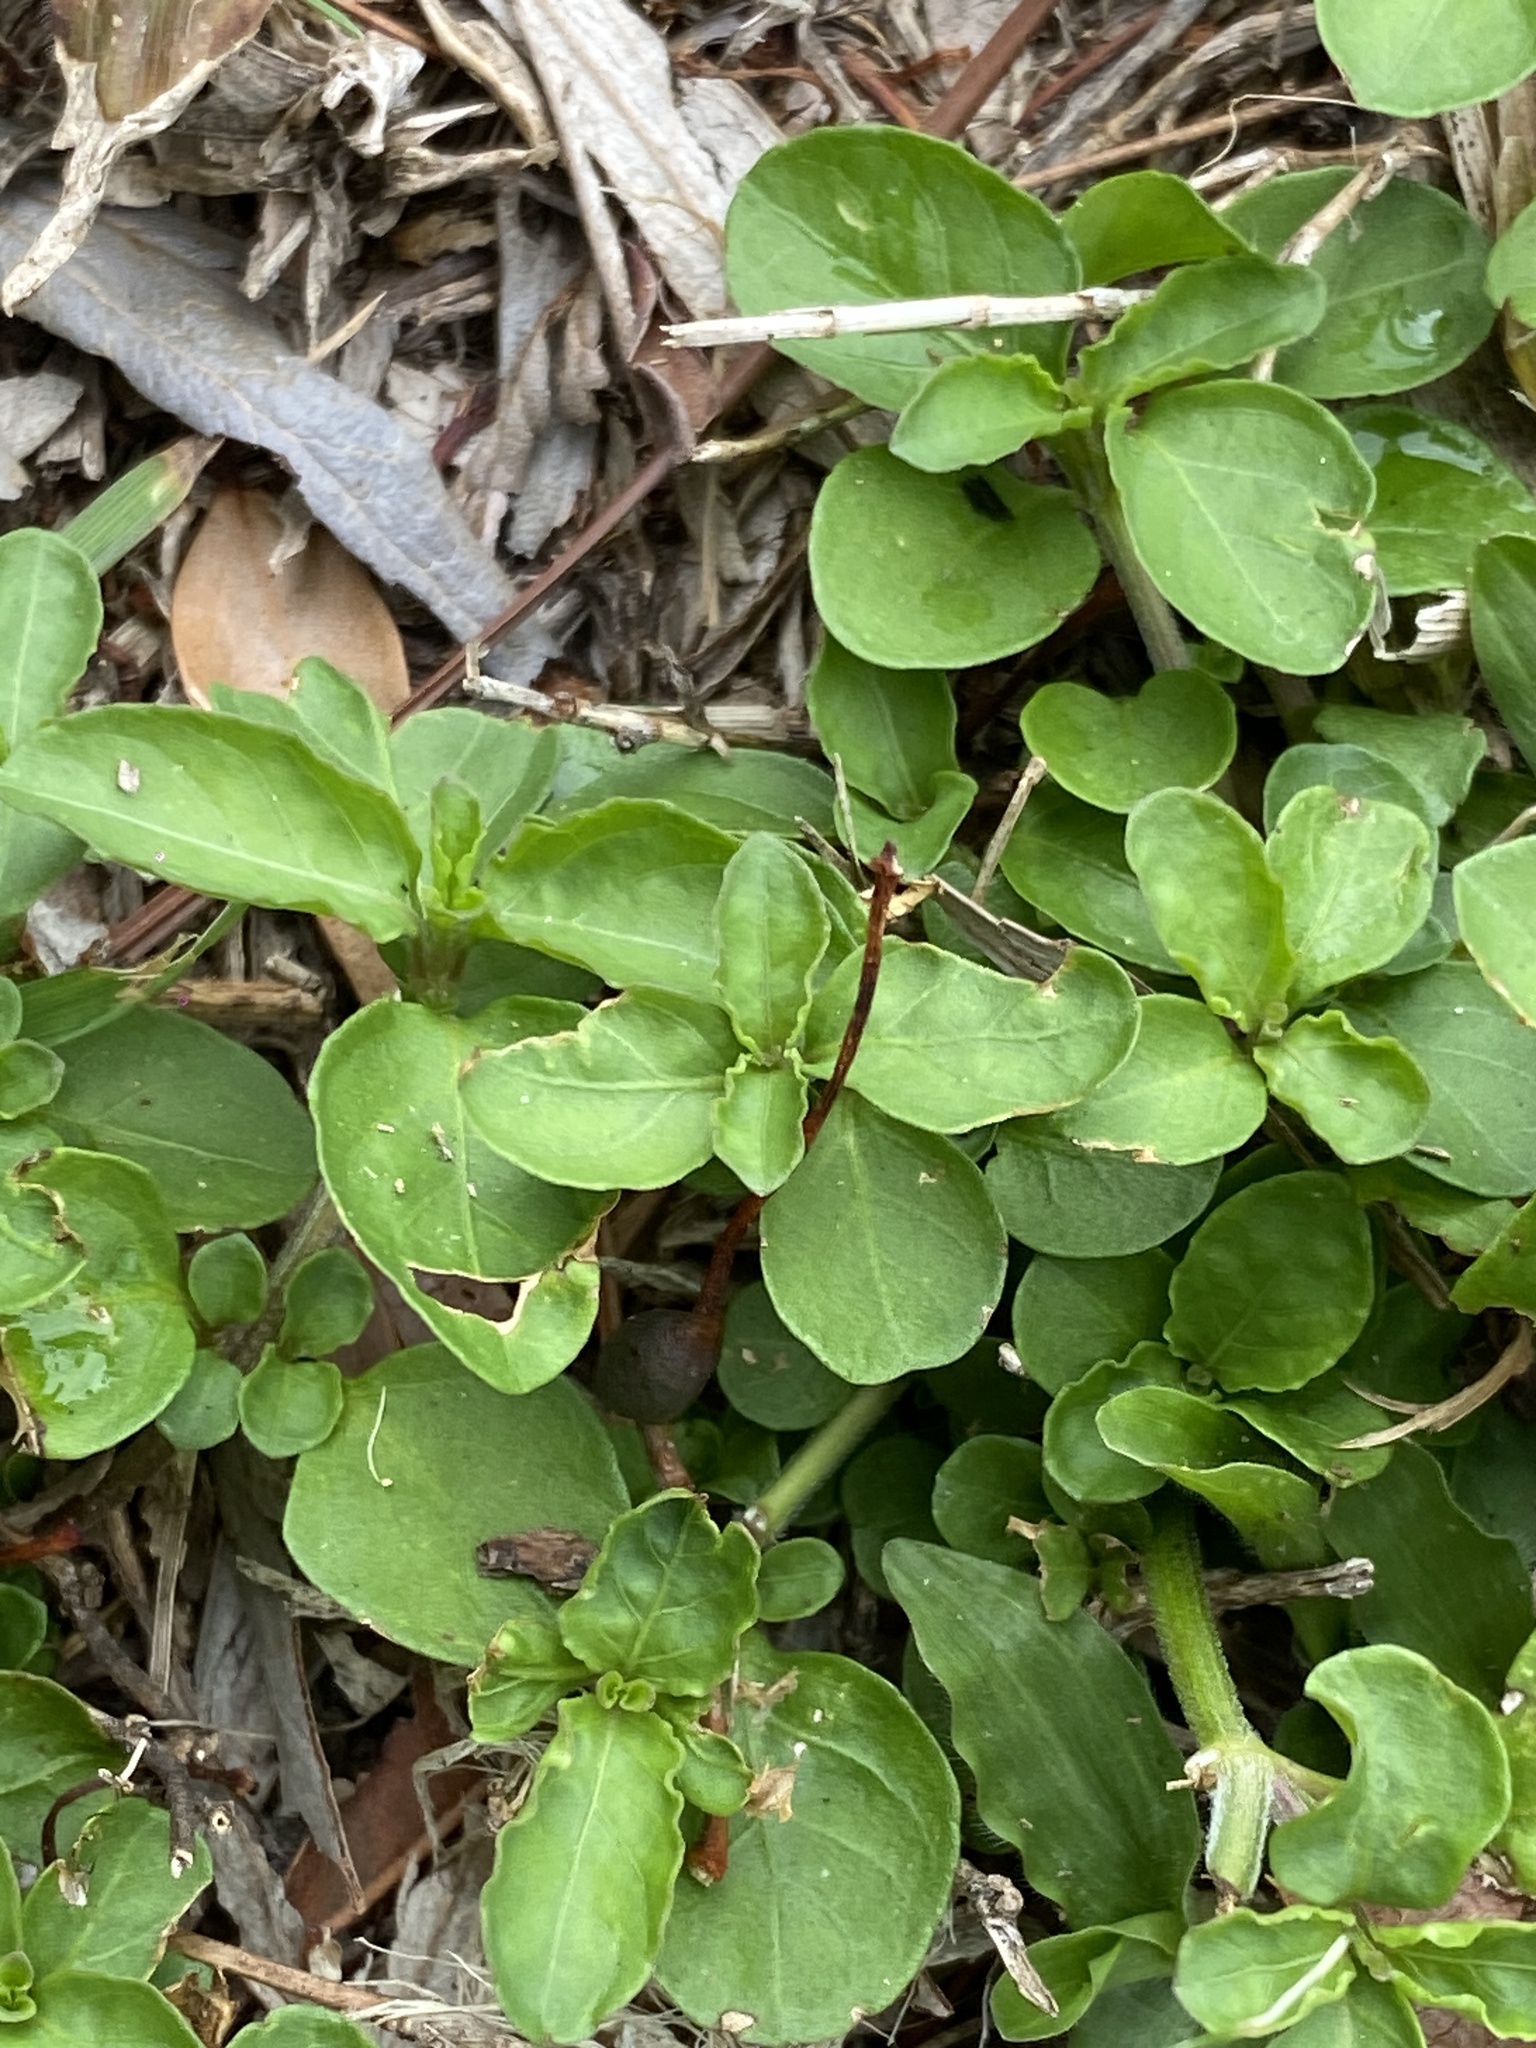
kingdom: Plantae
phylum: Tracheophyta
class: Magnoliopsida
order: Lamiales
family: Acanthaceae
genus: Hygrophila
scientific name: Hygrophila erecta
